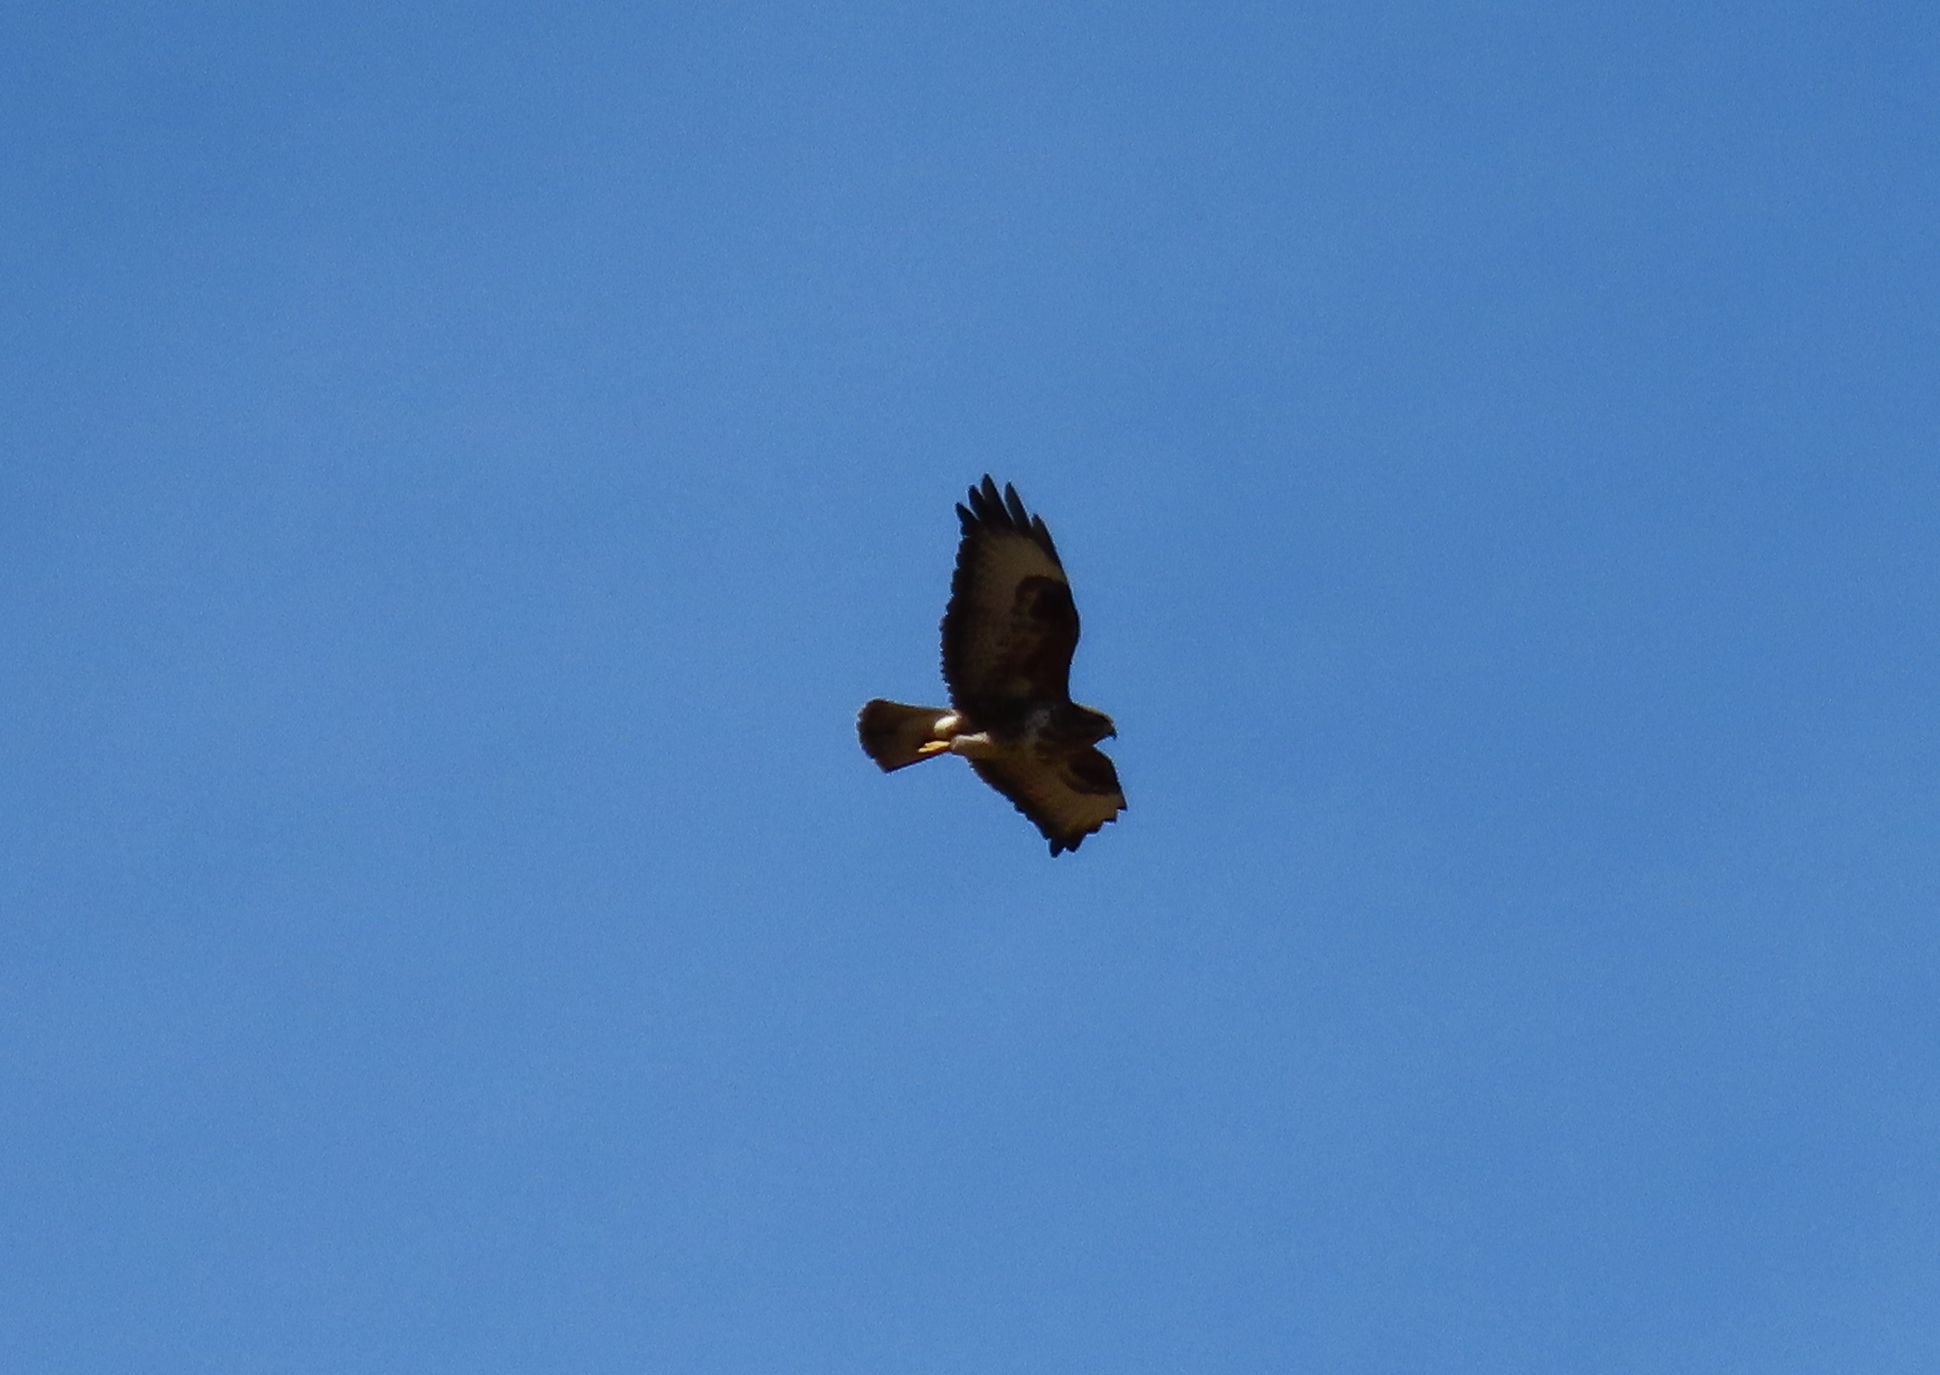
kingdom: Animalia
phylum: Chordata
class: Aves
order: Accipitriformes
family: Accipitridae
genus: Buteo
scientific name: Buteo buteo
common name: Common buzzard
